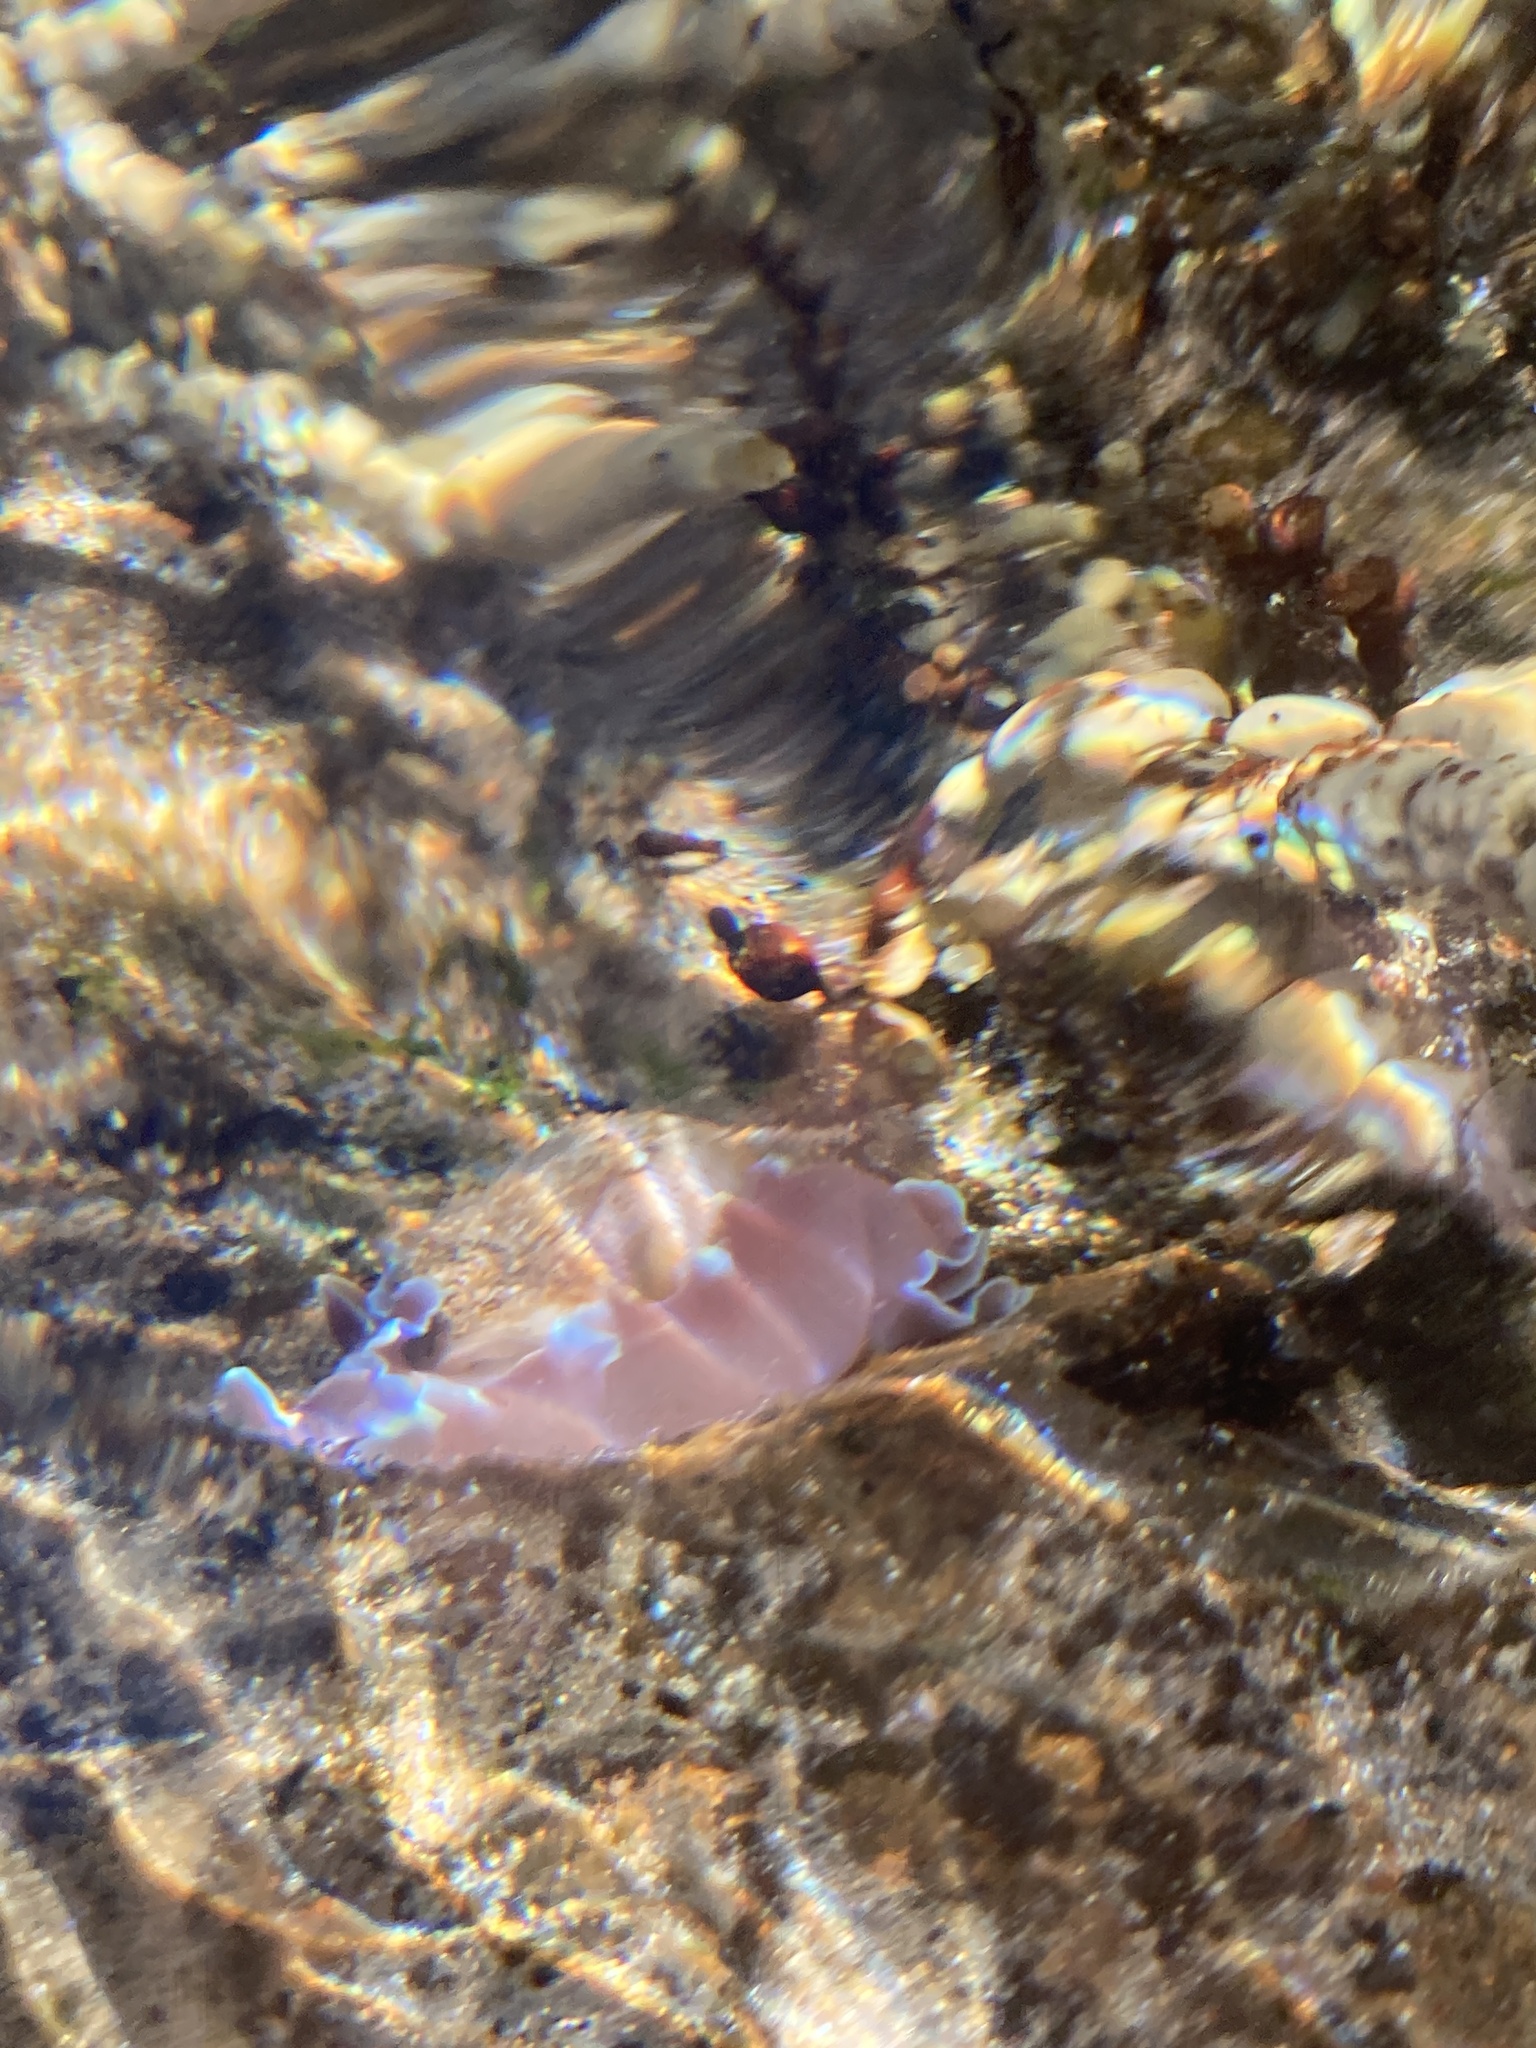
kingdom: Animalia
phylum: Mollusca
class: Gastropoda
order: Cephalaspidea
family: Aplustridae
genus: Hydatina
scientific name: Hydatina physis
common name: Brown-line paperbubble
